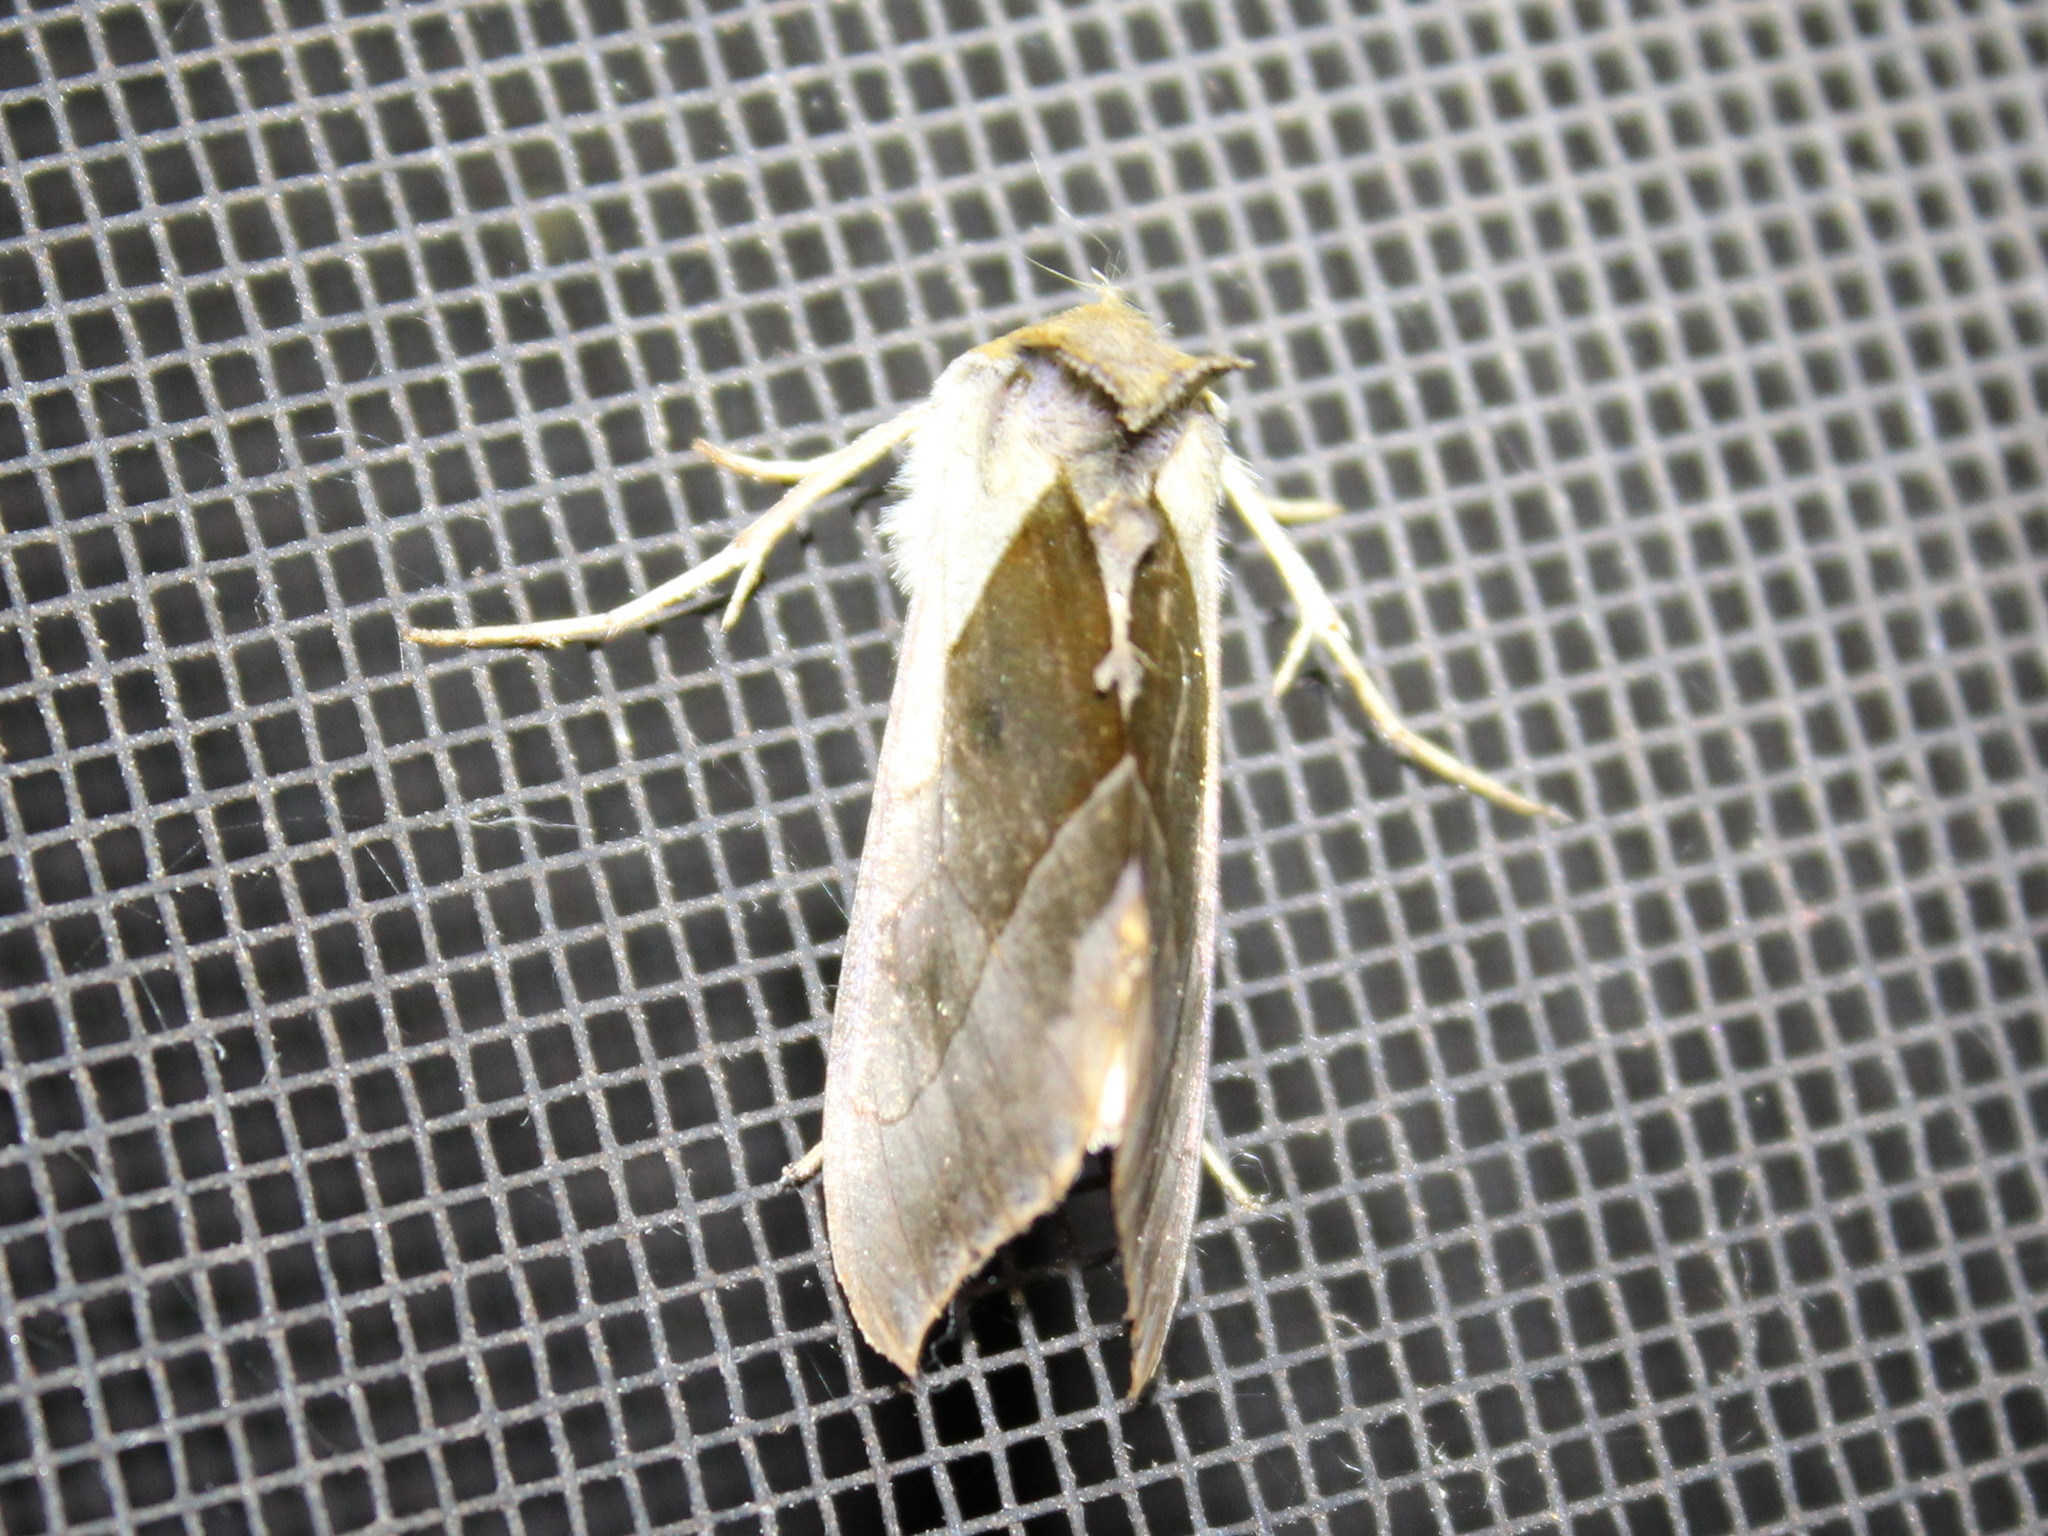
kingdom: Animalia
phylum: Arthropoda
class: Insecta
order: Lepidoptera
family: Noctuidae
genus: Diachrysia
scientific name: Diachrysia balluca
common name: Green-patched looper moth
